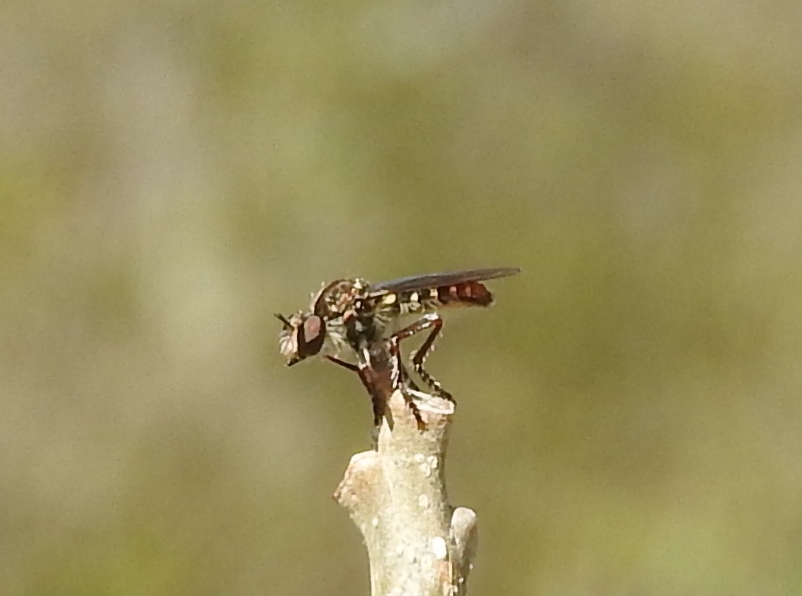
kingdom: Animalia
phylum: Arthropoda
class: Insecta
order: Diptera
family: Asilidae
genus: Heteropogon
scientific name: Heteropogon
